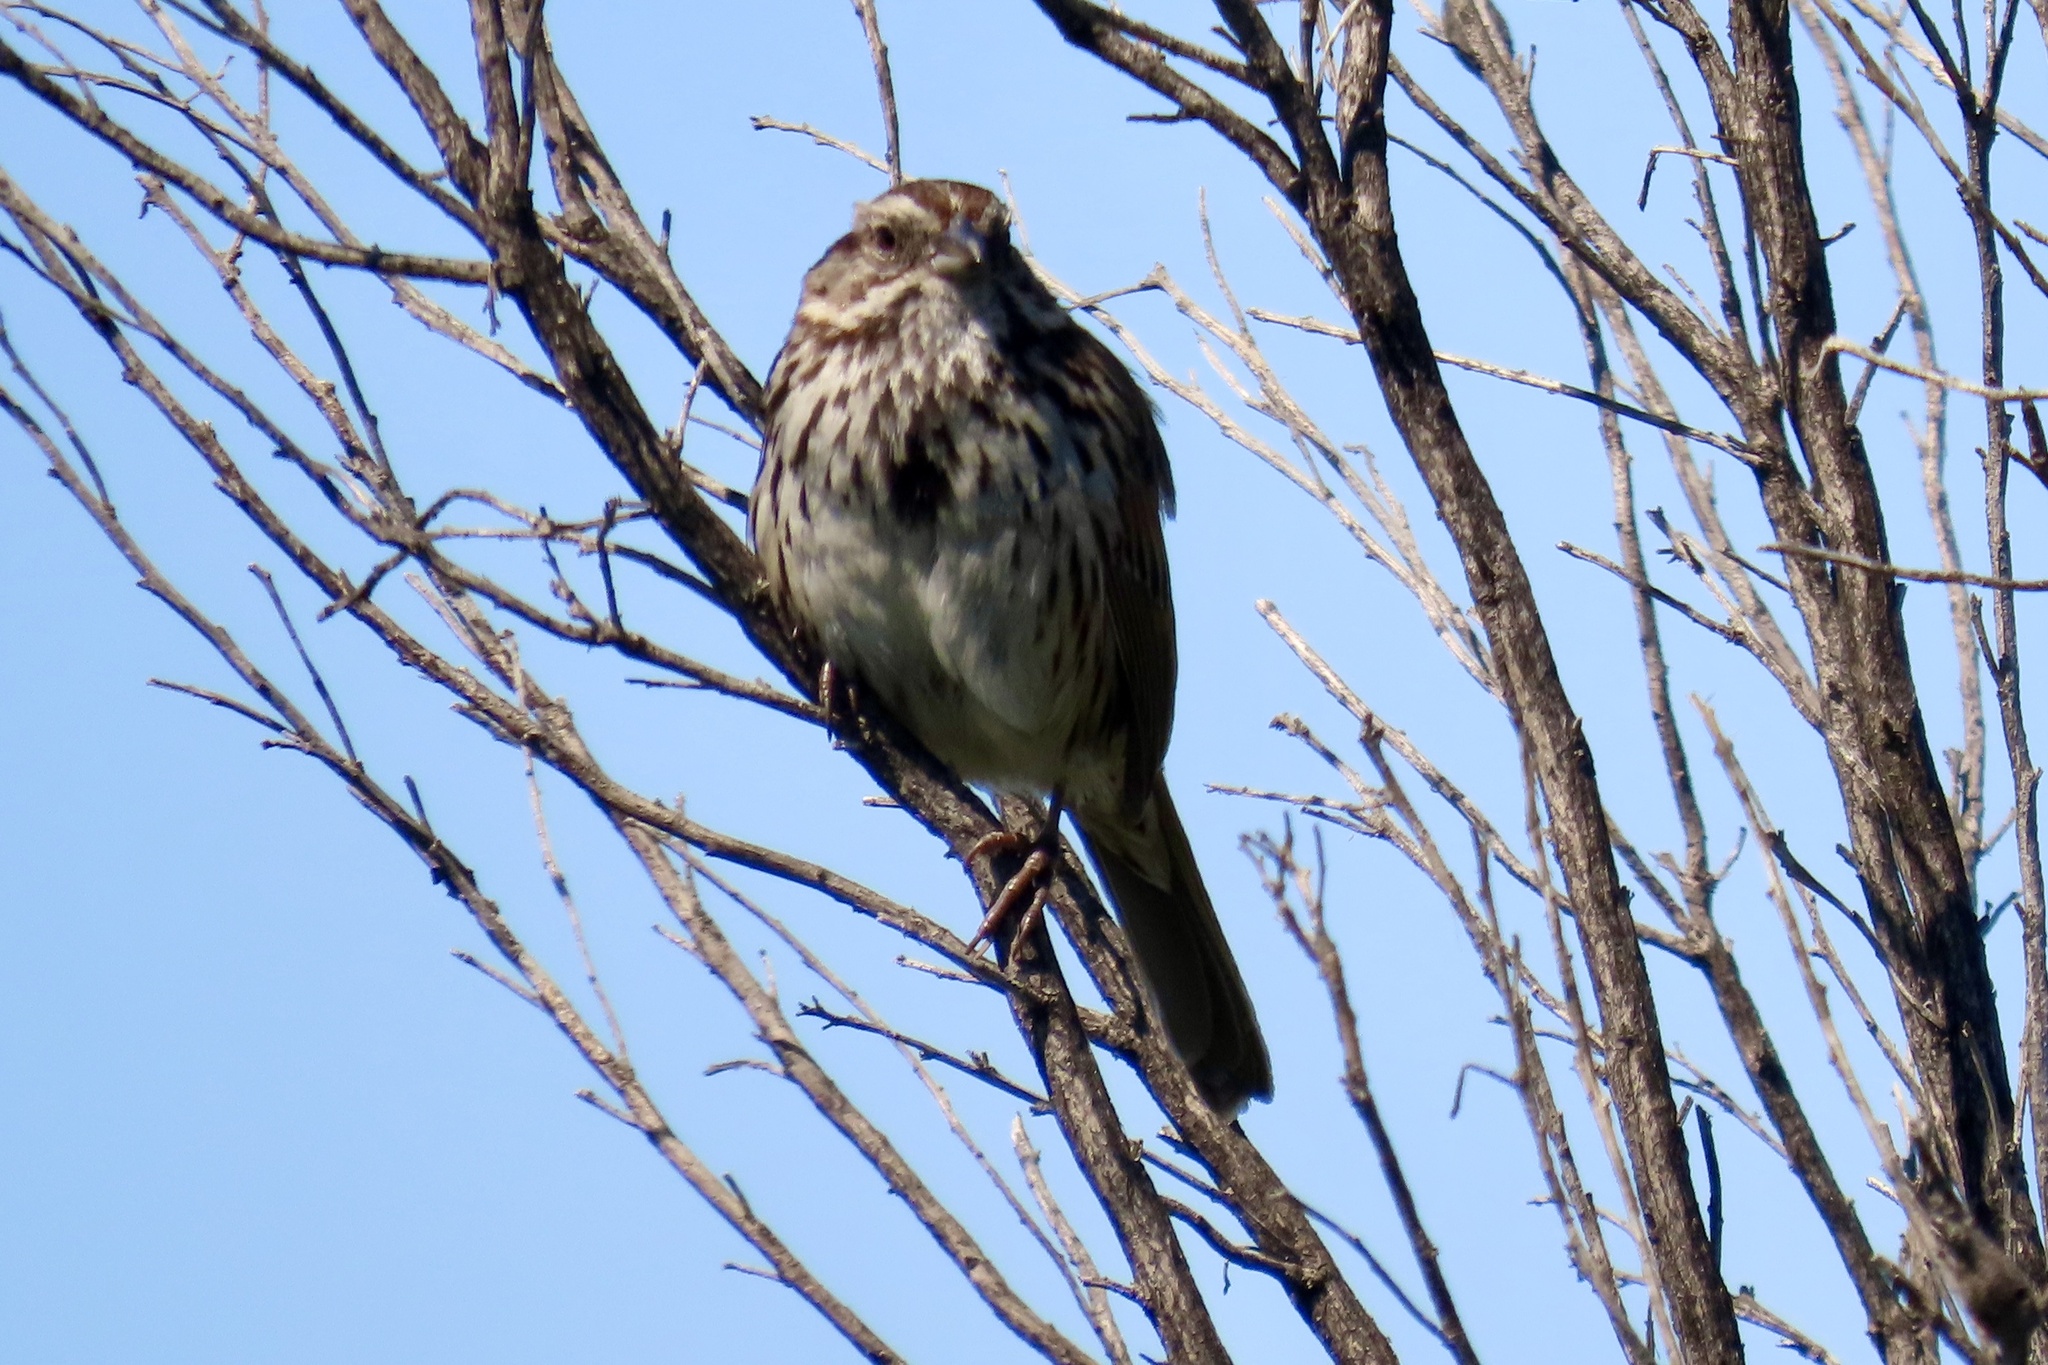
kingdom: Animalia
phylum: Chordata
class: Aves
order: Passeriformes
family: Passerellidae
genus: Melospiza
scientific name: Melospiza melodia
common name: Song sparrow
